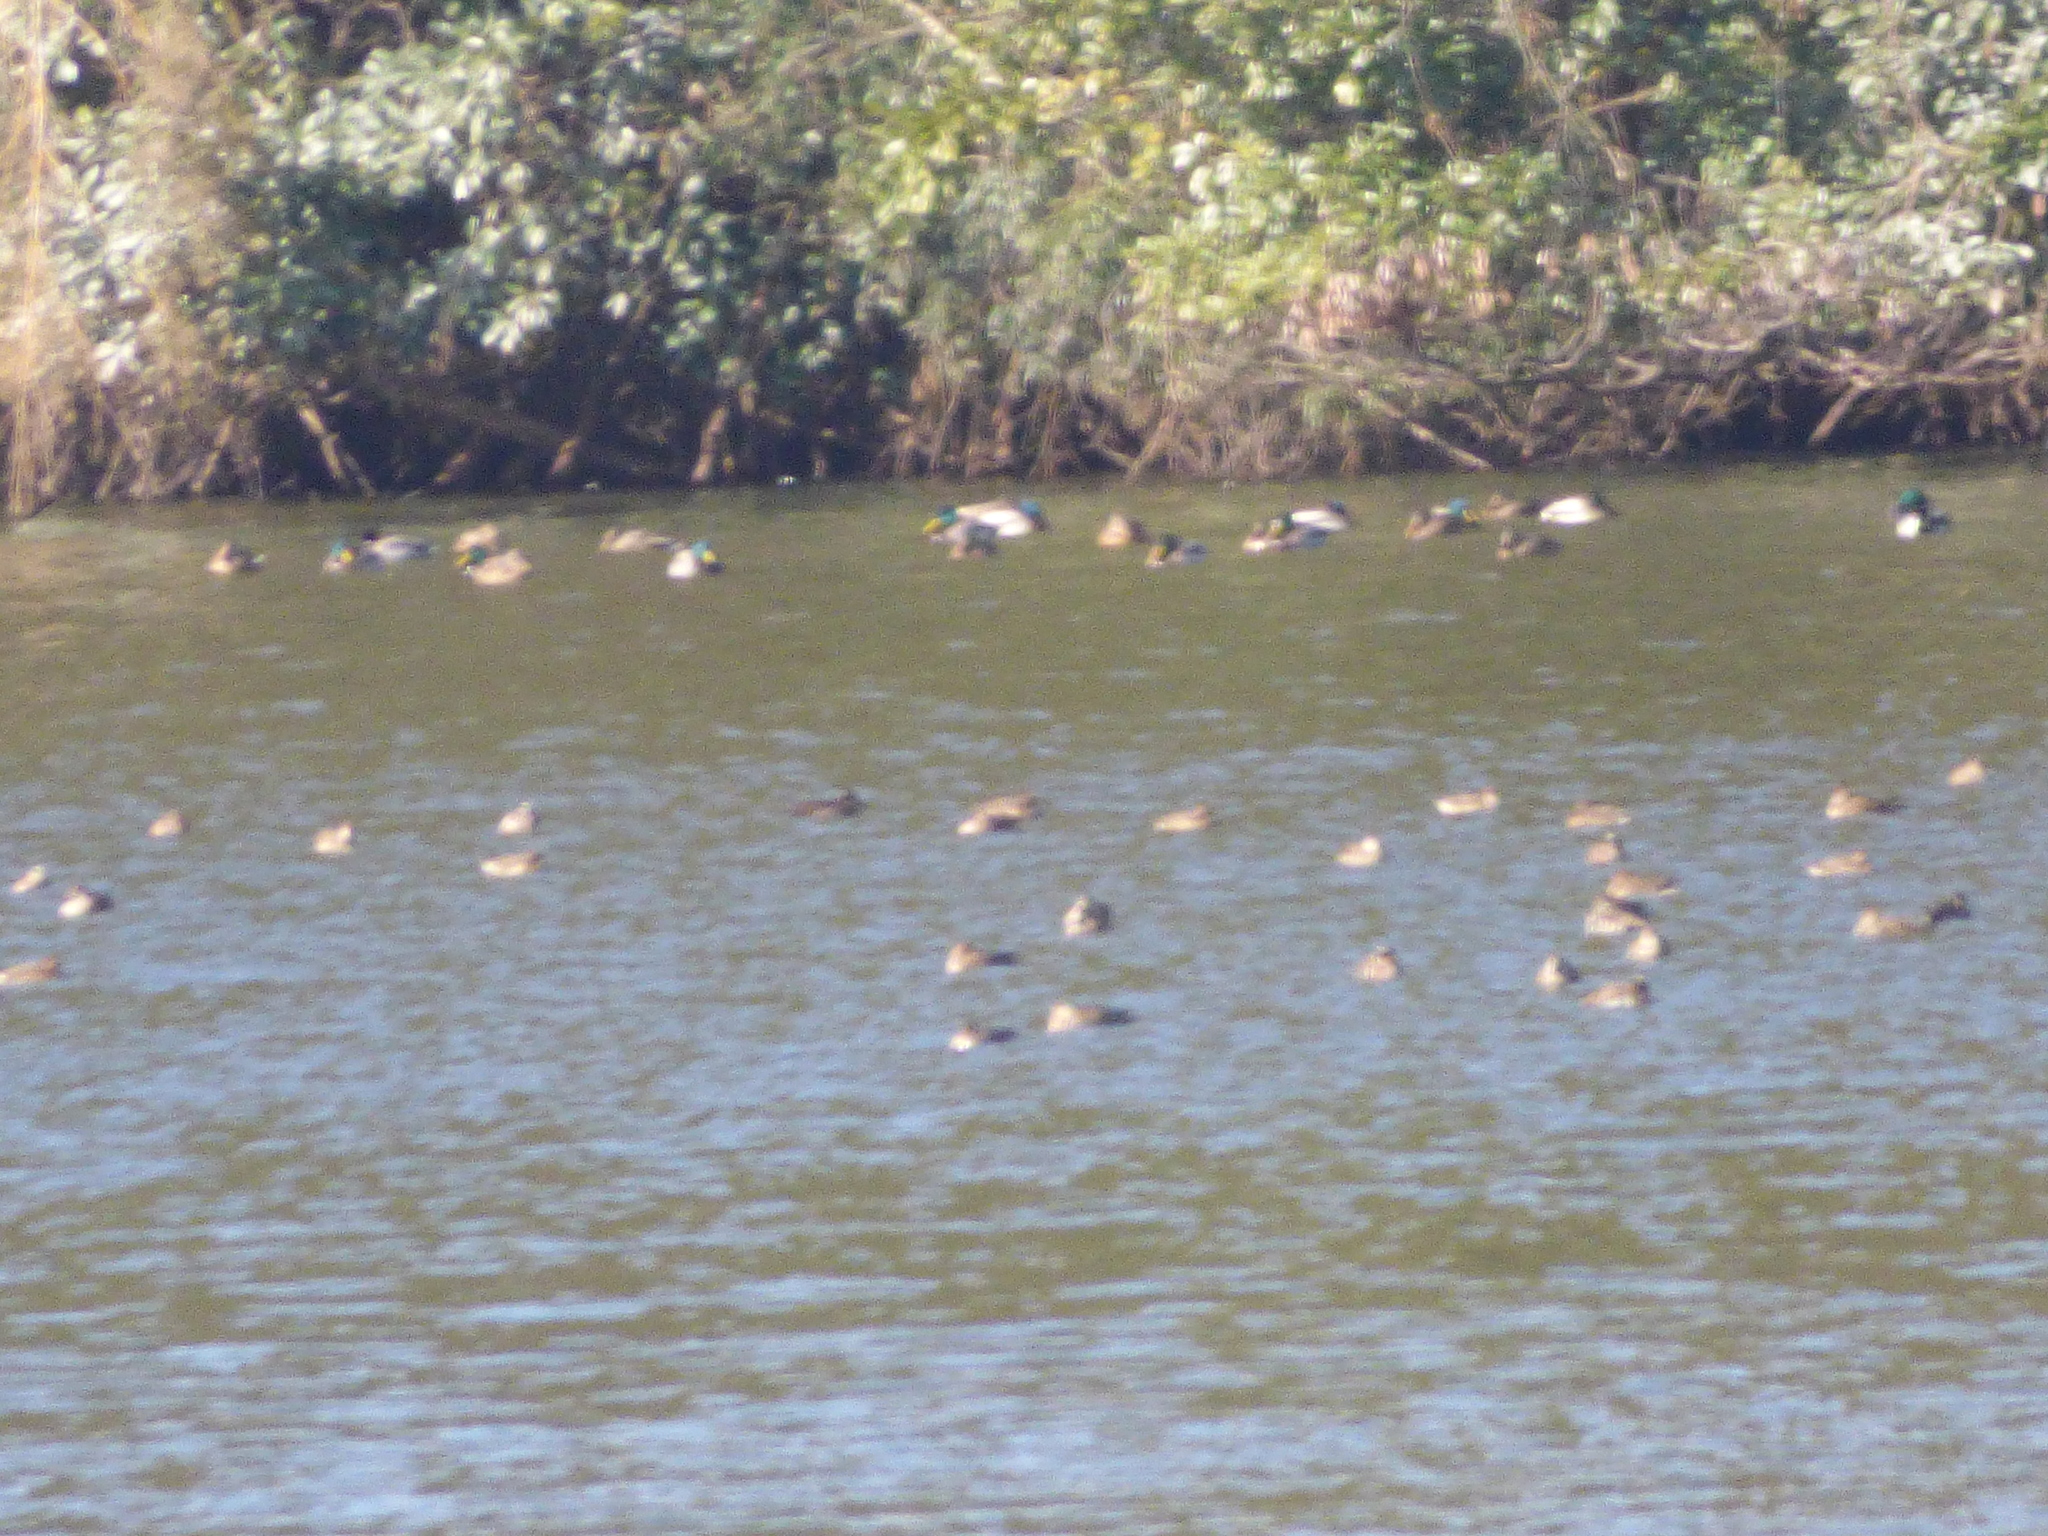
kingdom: Animalia
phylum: Chordata
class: Aves
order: Anseriformes
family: Anatidae
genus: Anas
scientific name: Anas platyrhynchos
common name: Mallard
